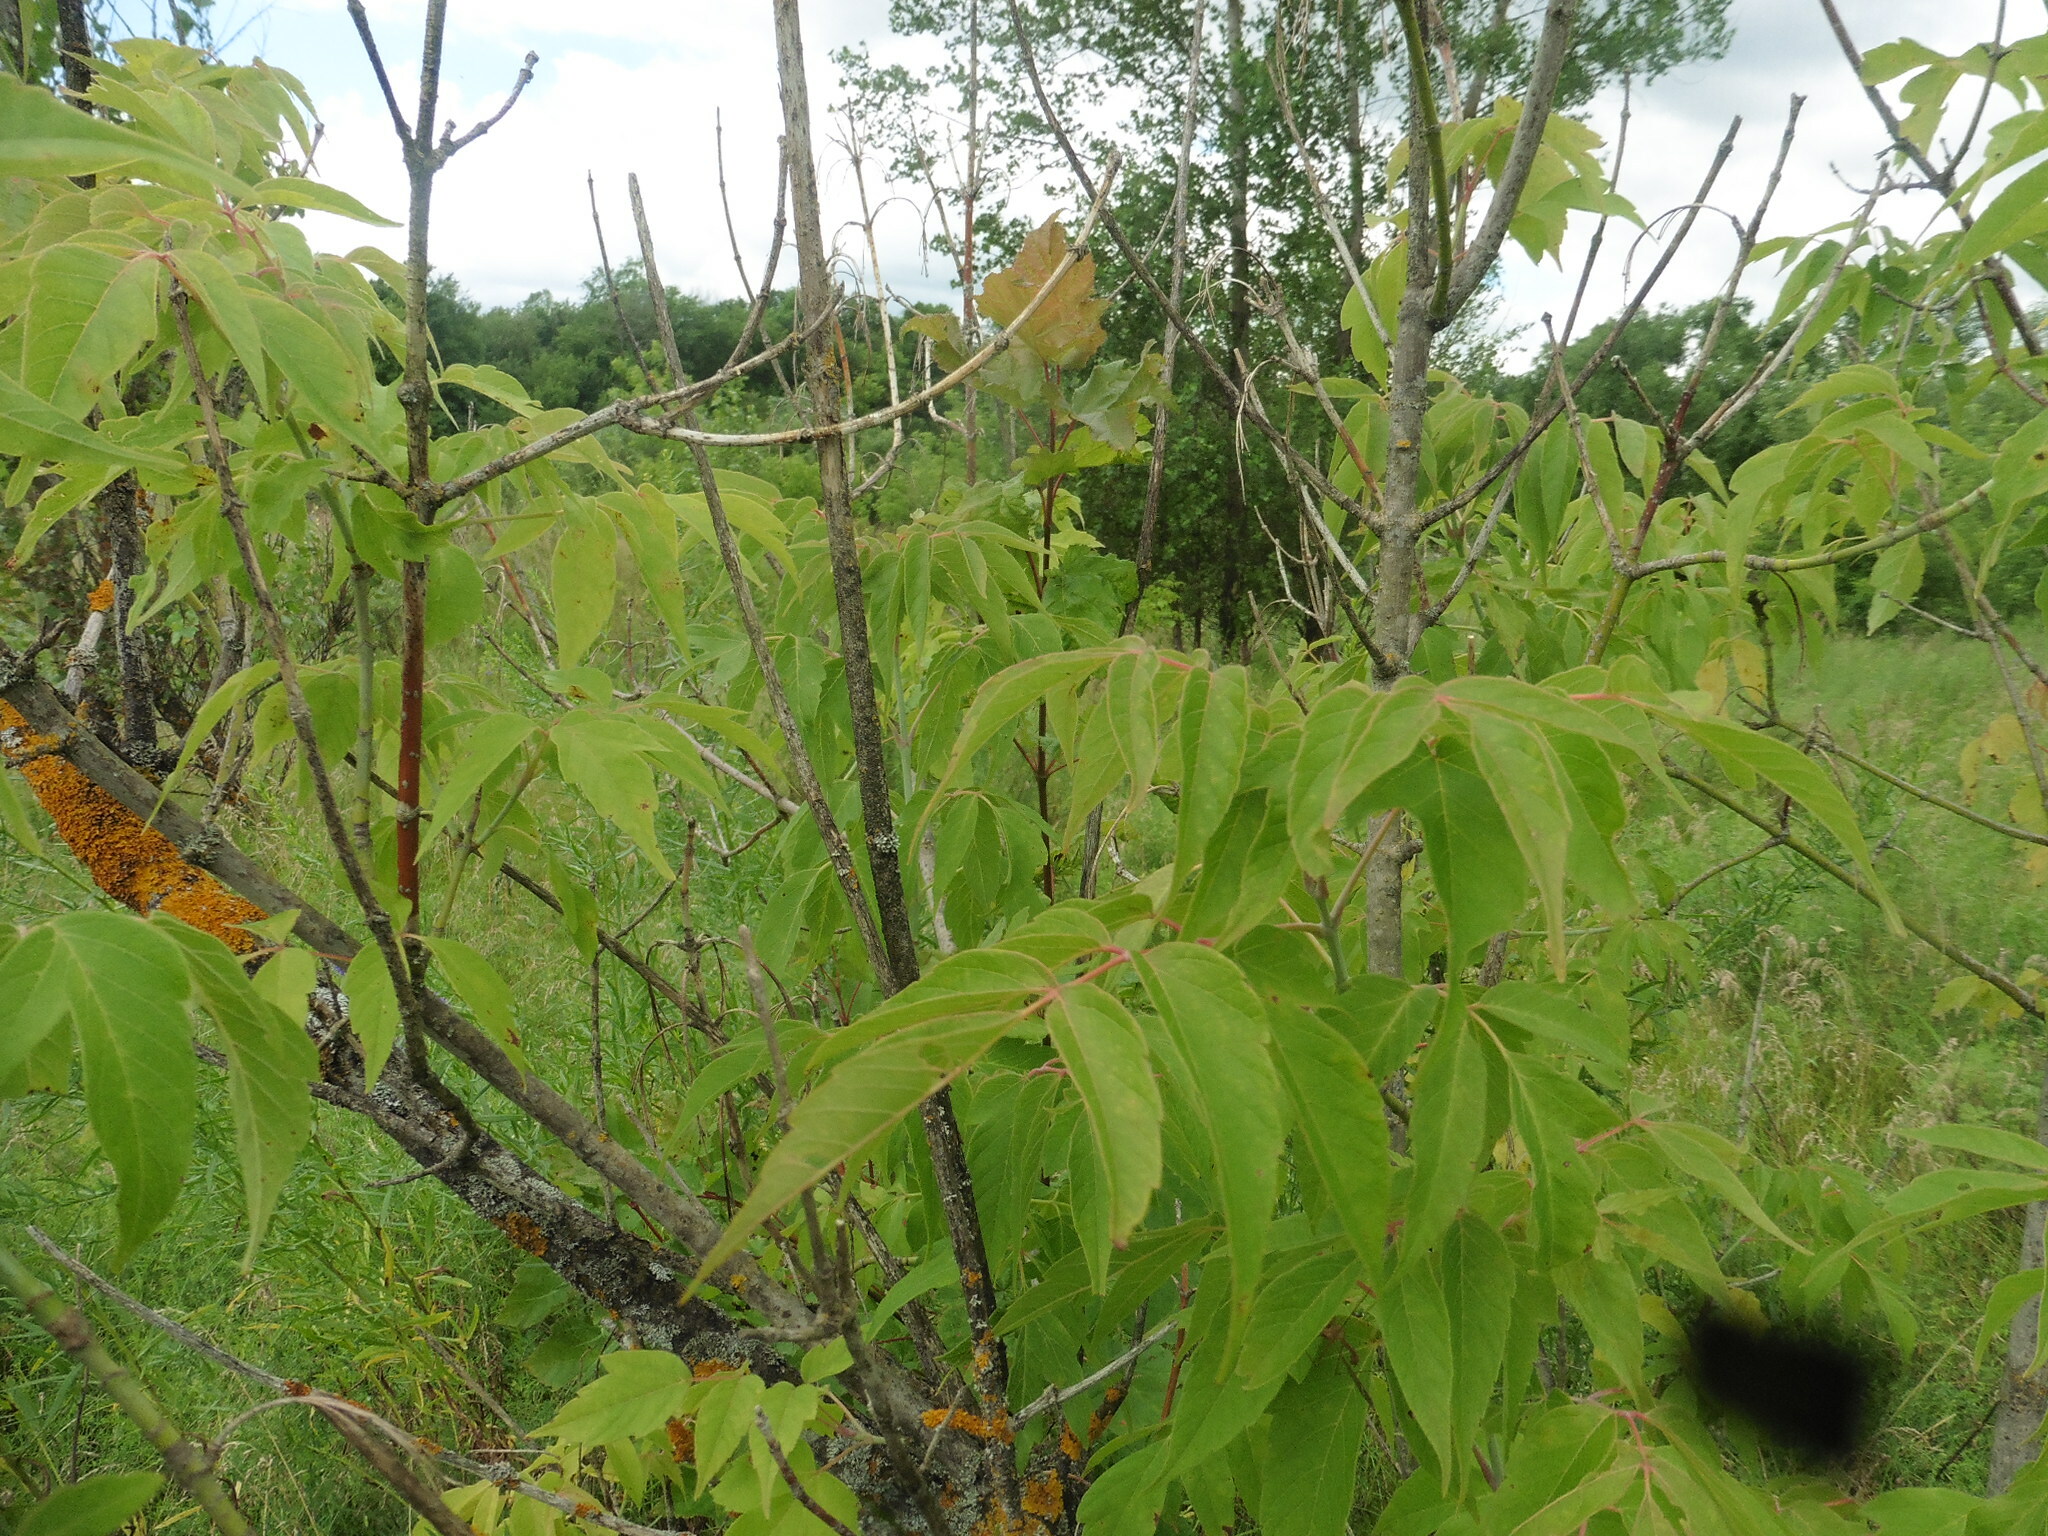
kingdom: Plantae
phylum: Tracheophyta
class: Magnoliopsida
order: Sapindales
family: Sapindaceae
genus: Acer
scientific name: Acer negundo
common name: Ashleaf maple
